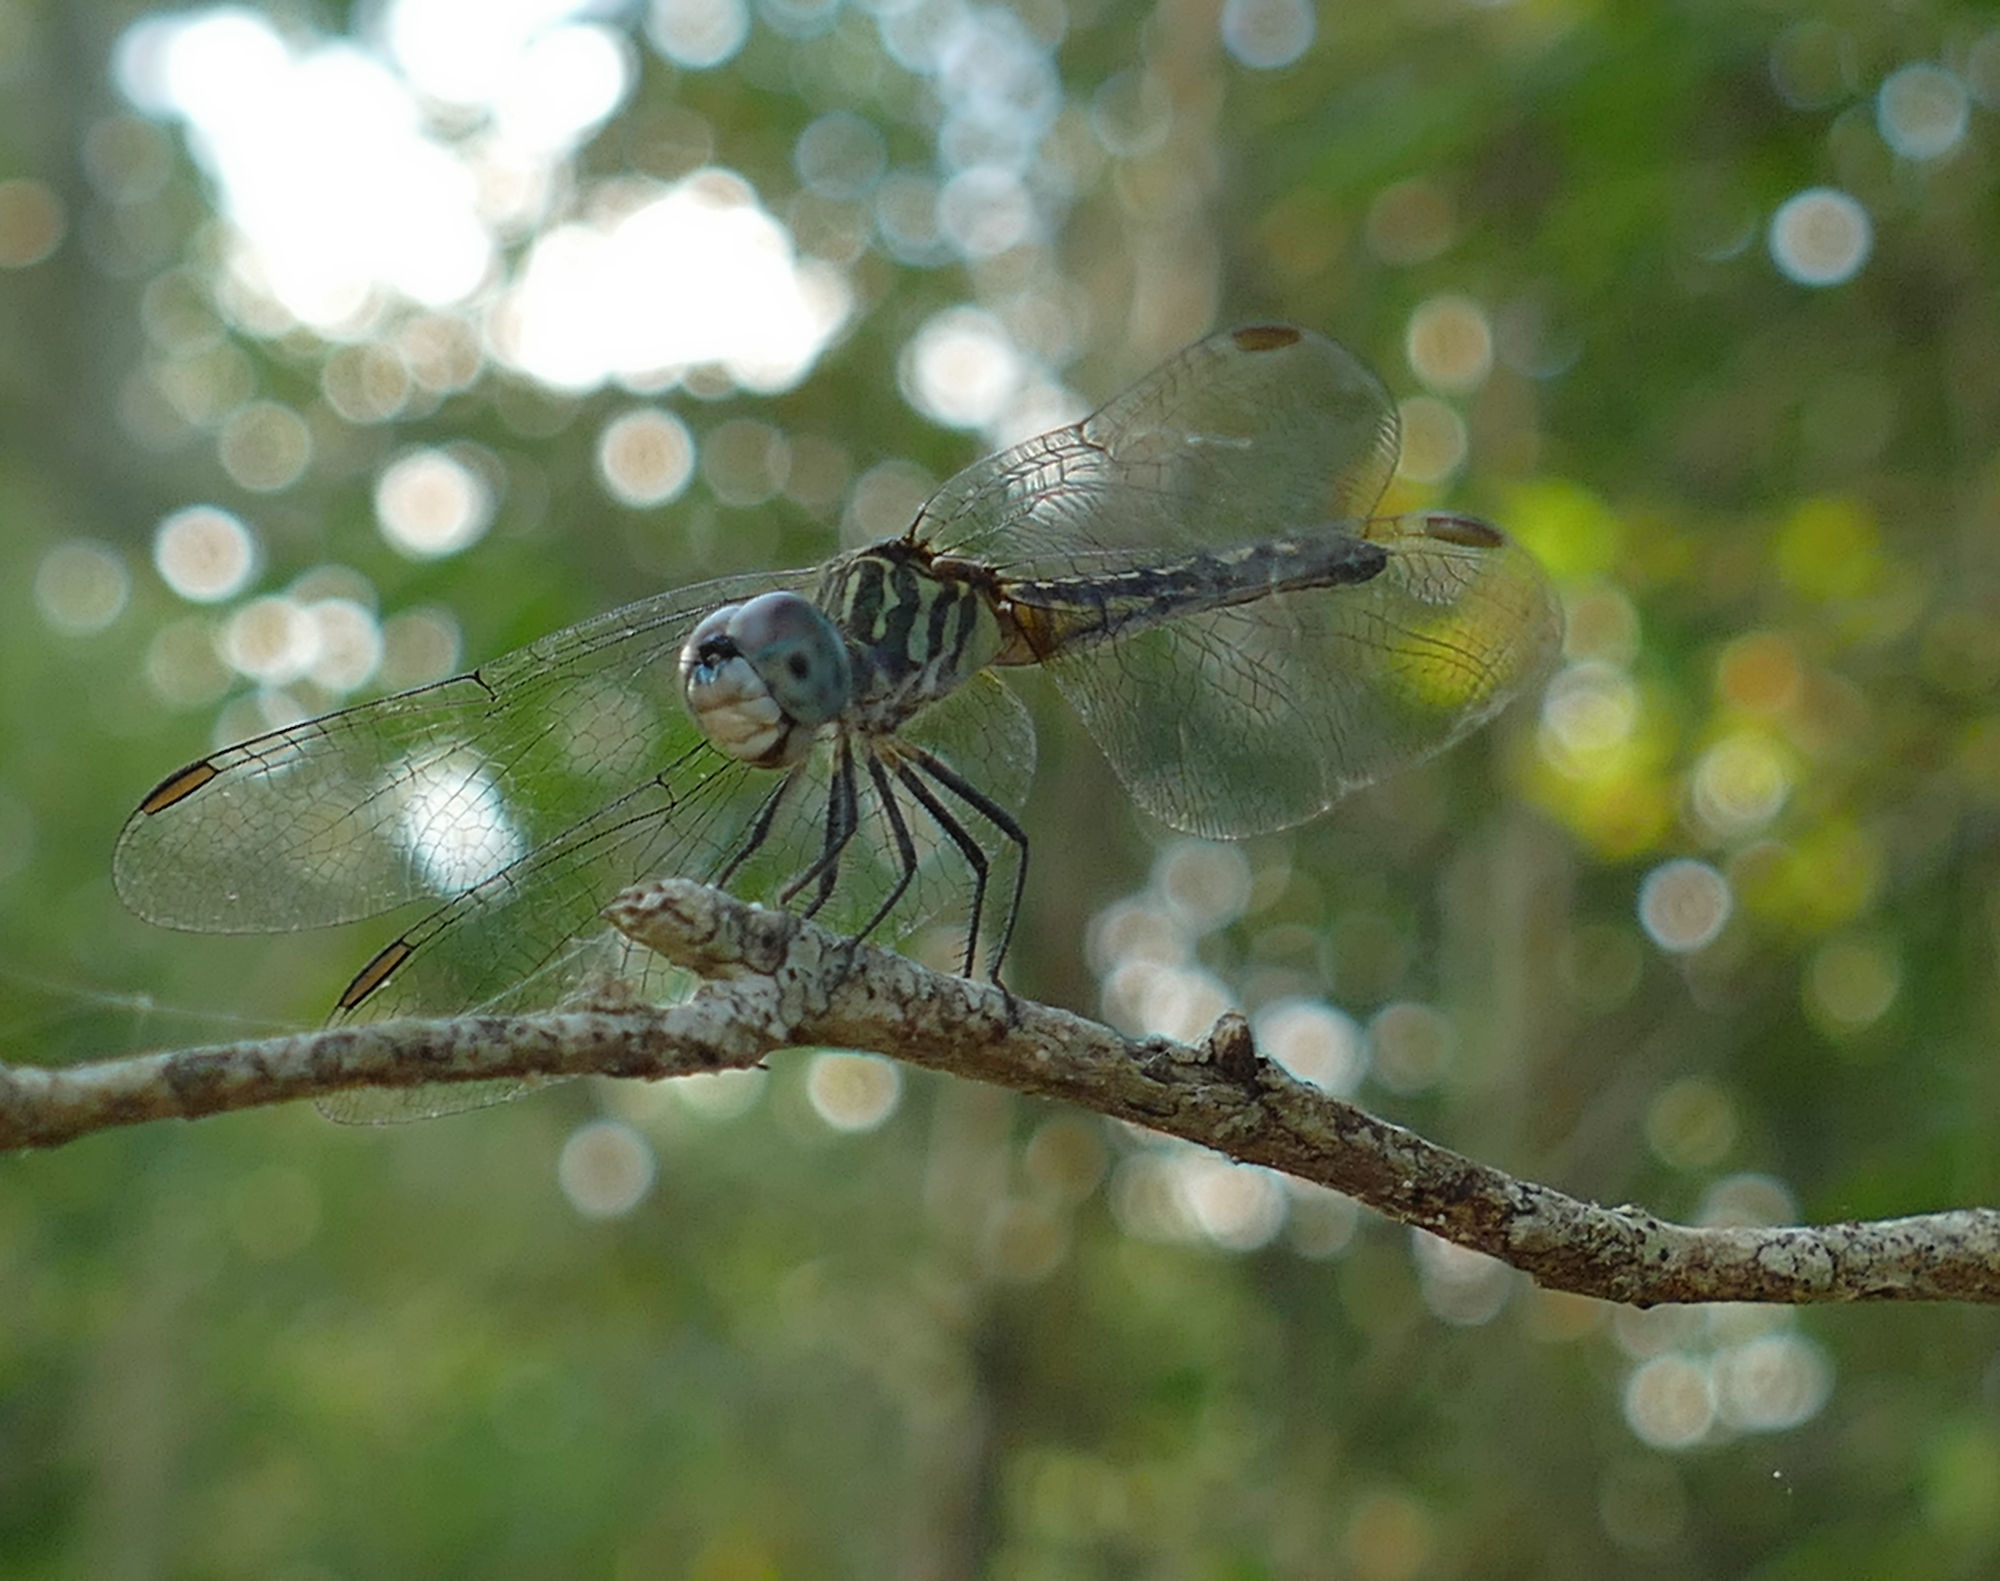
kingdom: Animalia
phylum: Arthropoda
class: Insecta
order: Odonata
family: Libellulidae
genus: Pachydiplax
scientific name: Pachydiplax longipennis
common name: Blue dasher
